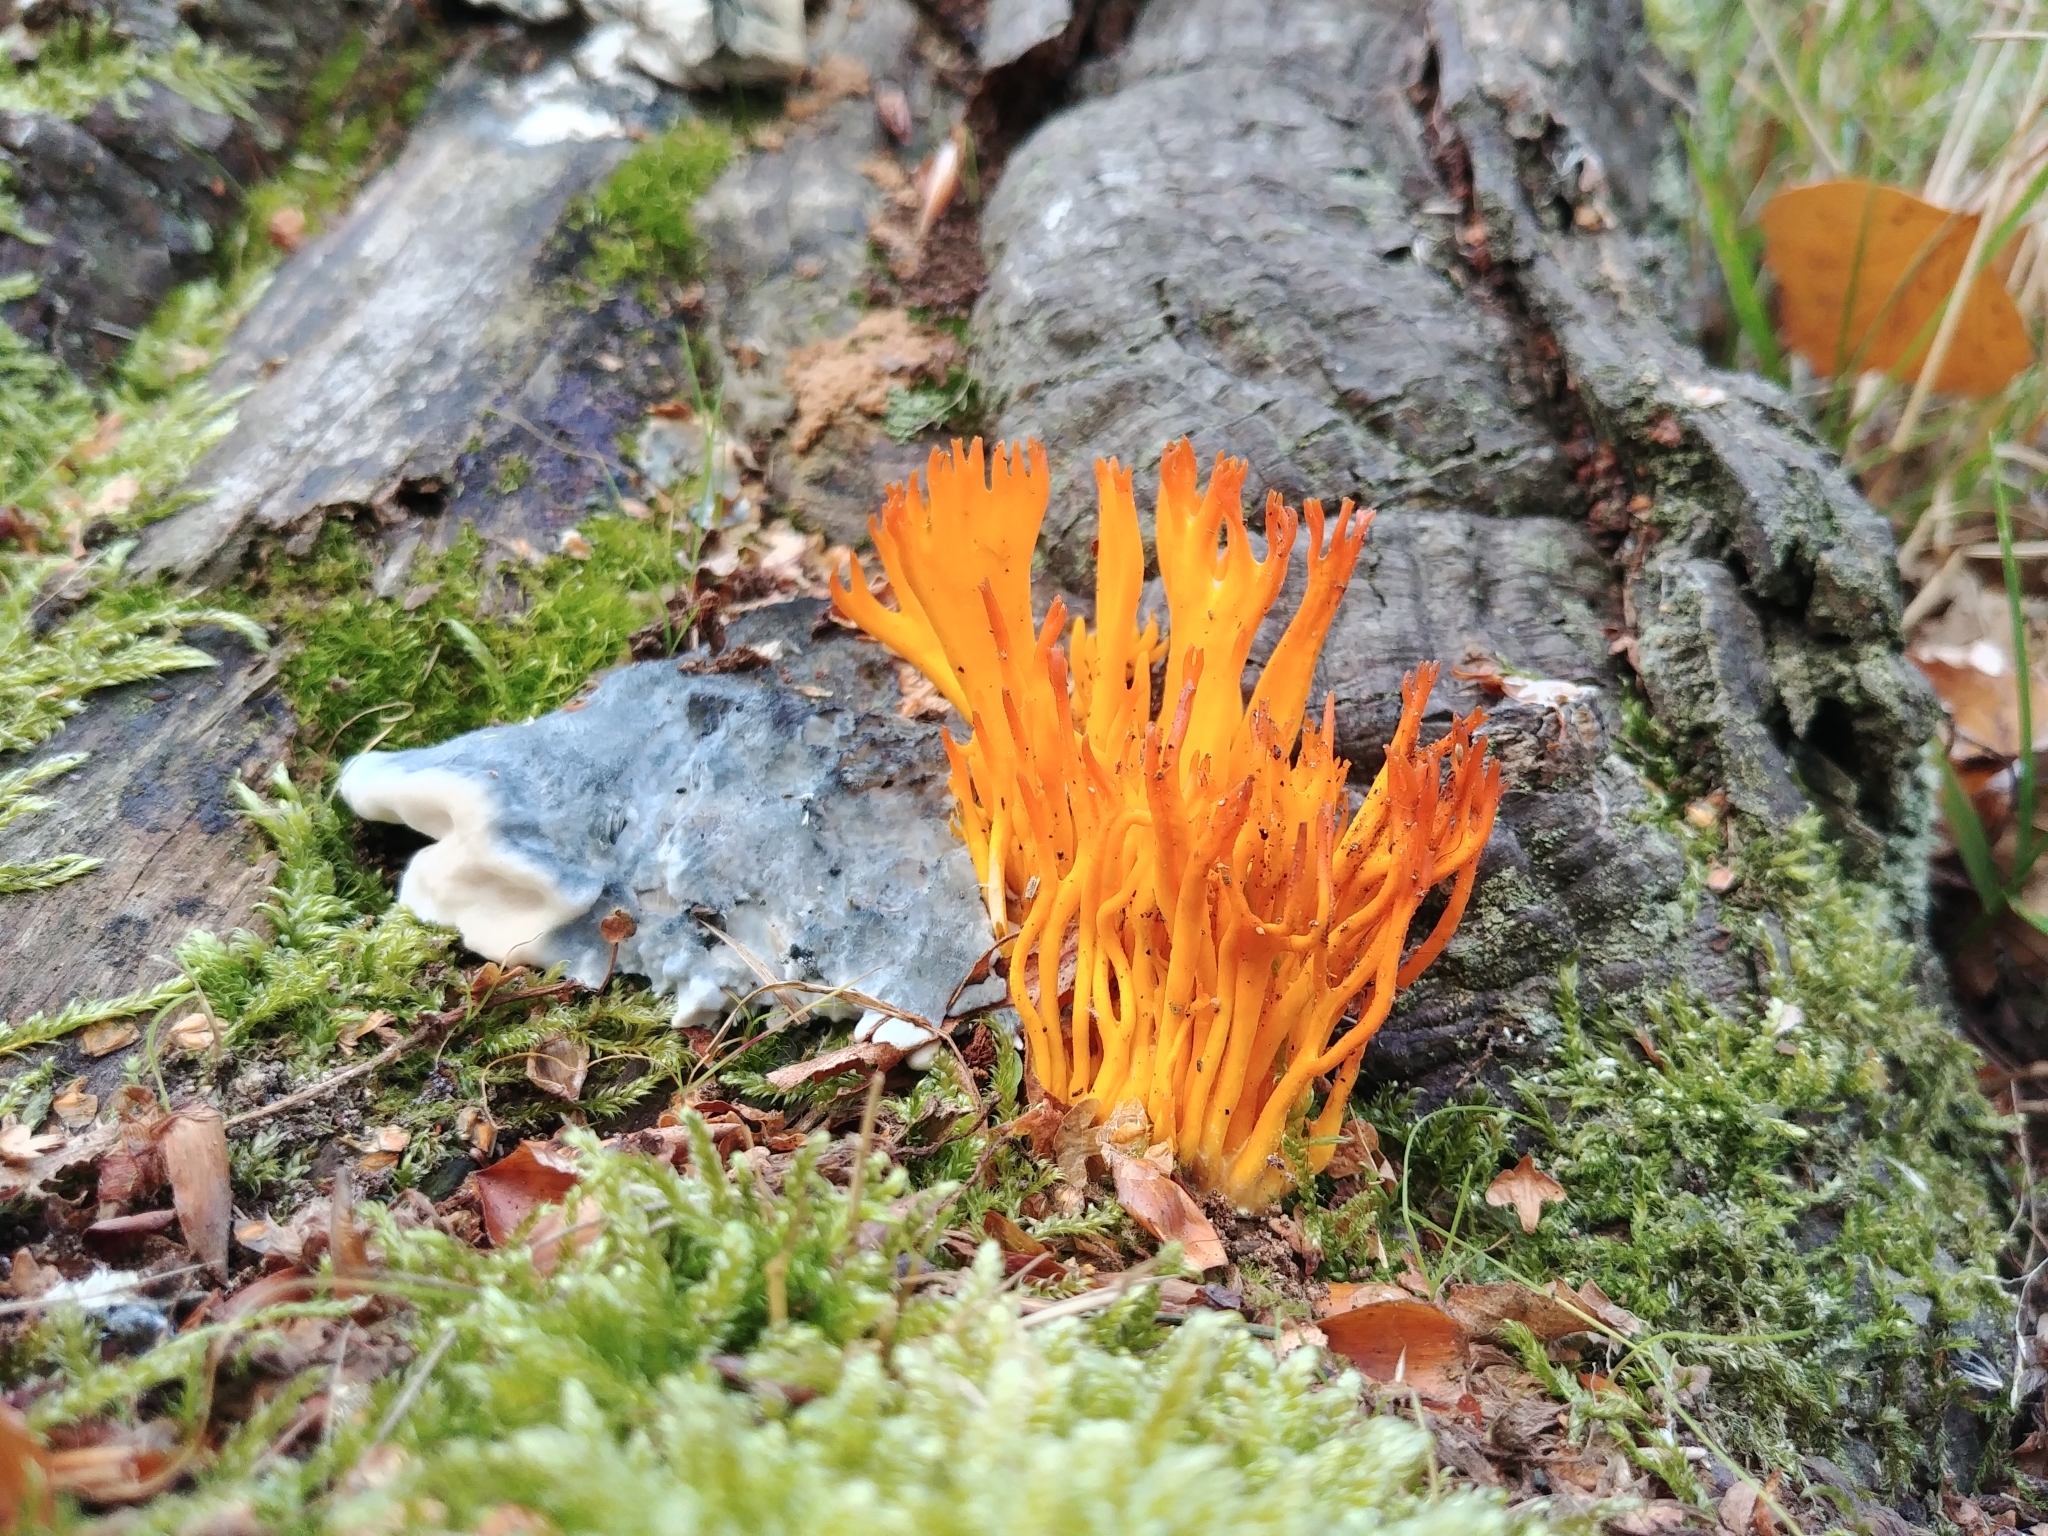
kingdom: Fungi
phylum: Basidiomycota
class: Dacrymycetes
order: Dacrymycetales
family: Dacrymycetaceae
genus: Calocera
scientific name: Calocera viscosa
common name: Yellow stagshorn
